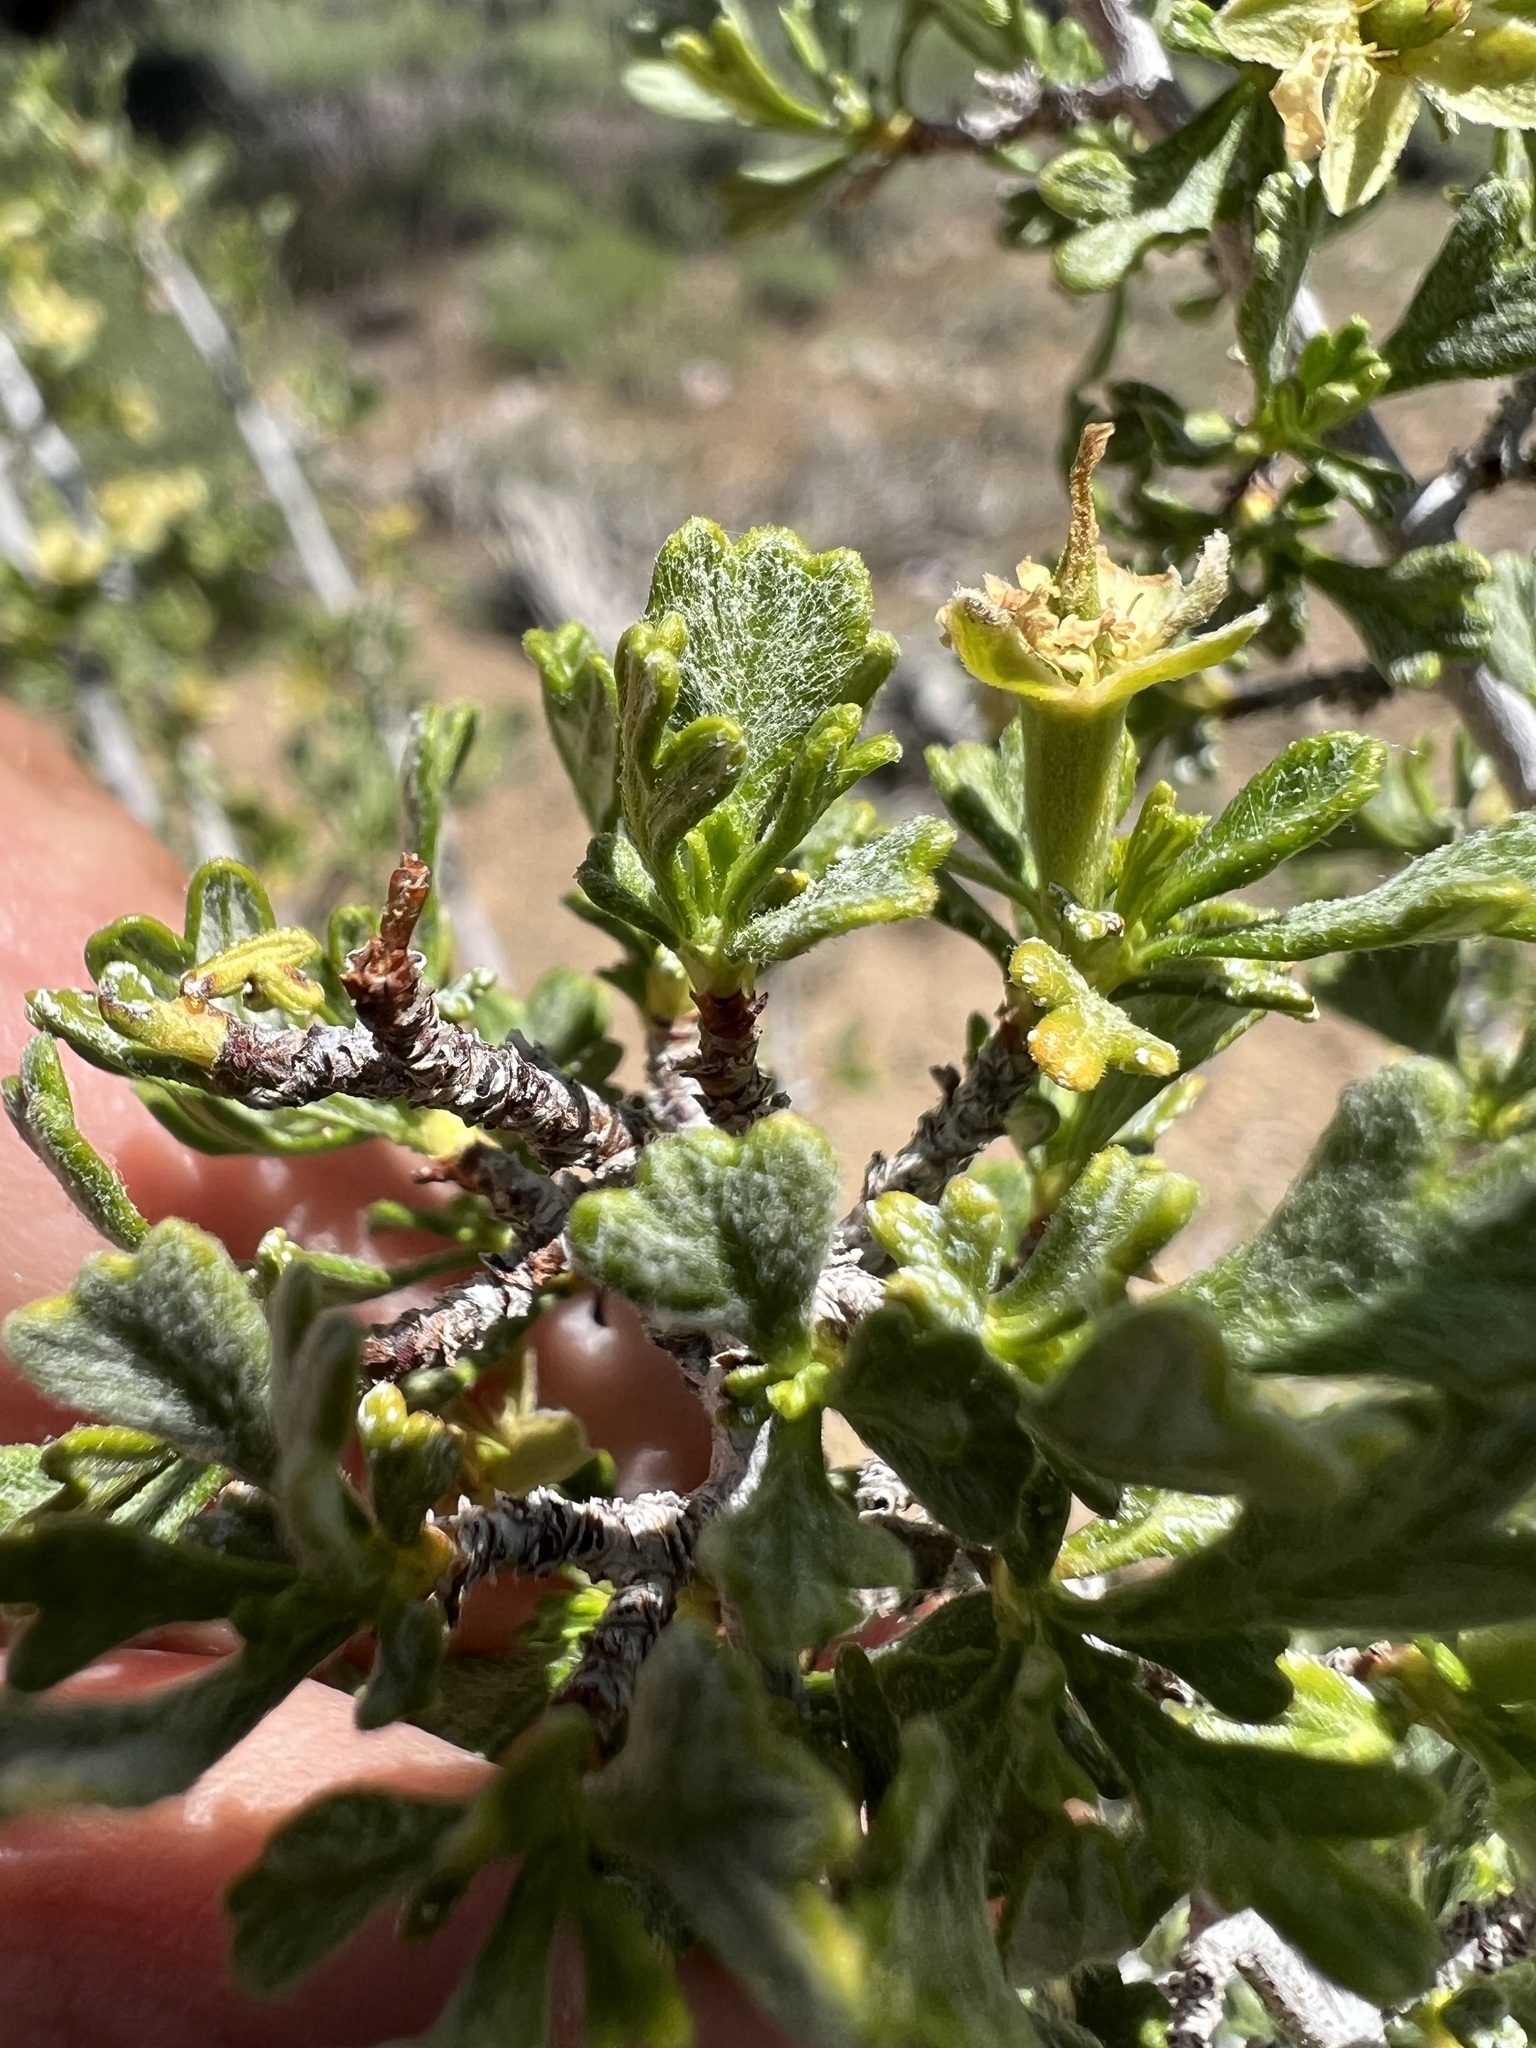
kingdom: Plantae
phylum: Tracheophyta
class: Magnoliopsida
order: Rosales
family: Rosaceae
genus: Purshia
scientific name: Purshia tridentata
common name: Antelope bitterbrush
